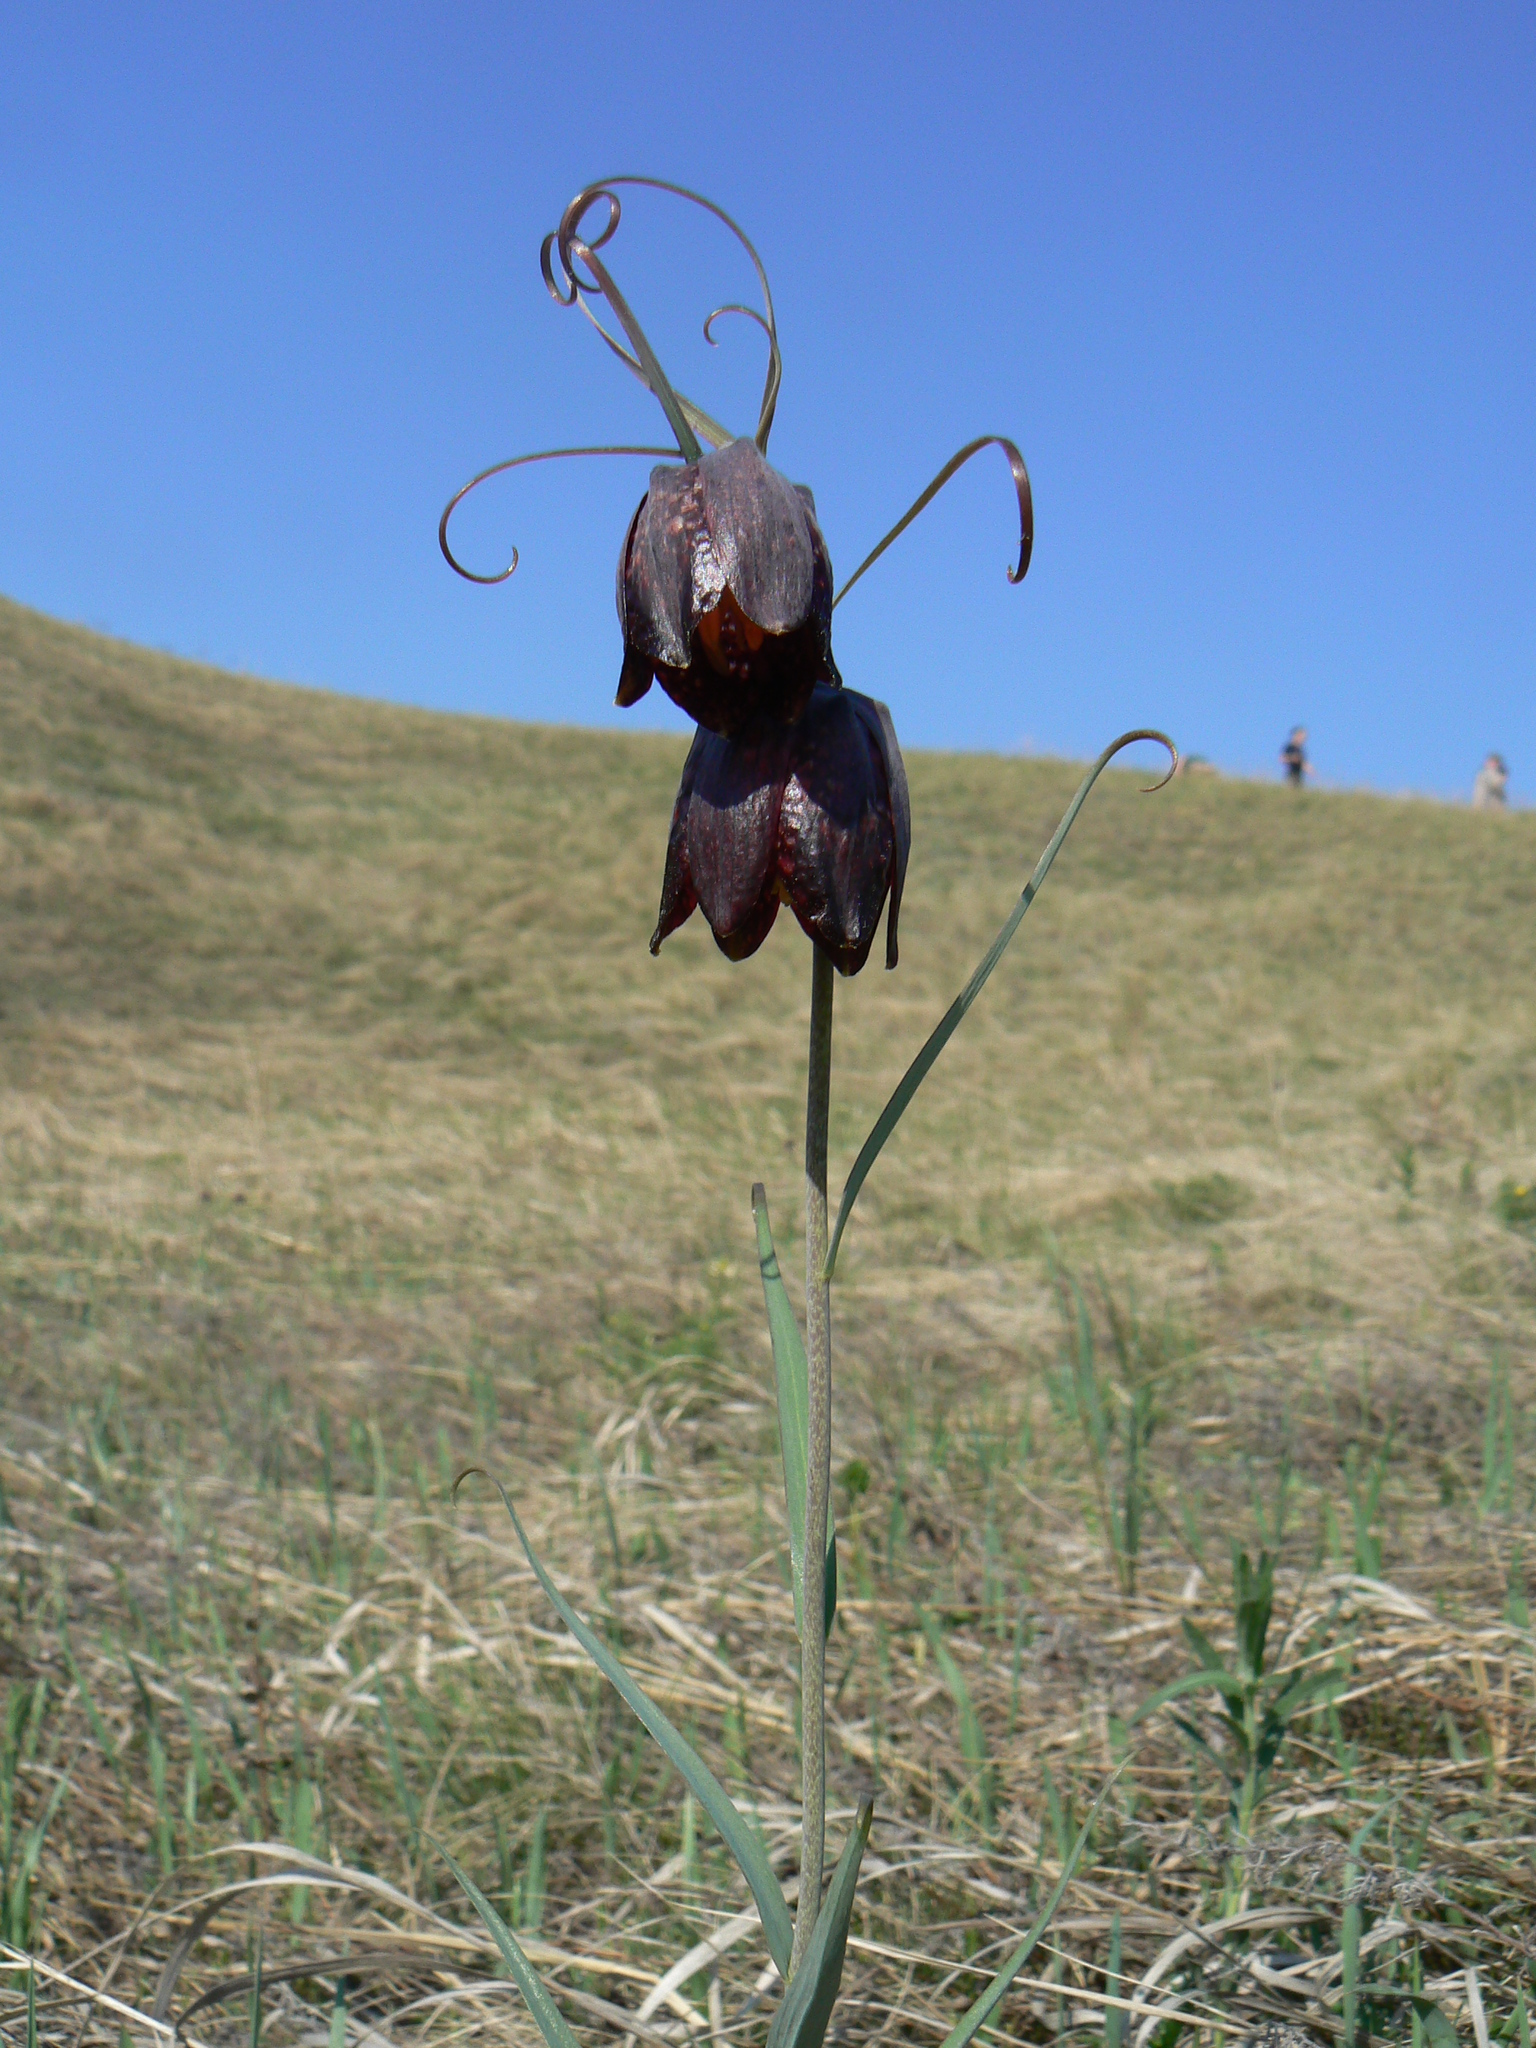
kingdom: Plantae
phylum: Tracheophyta
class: Liliopsida
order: Liliales
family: Liliaceae
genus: Fritillaria
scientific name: Fritillaria ruthenica
